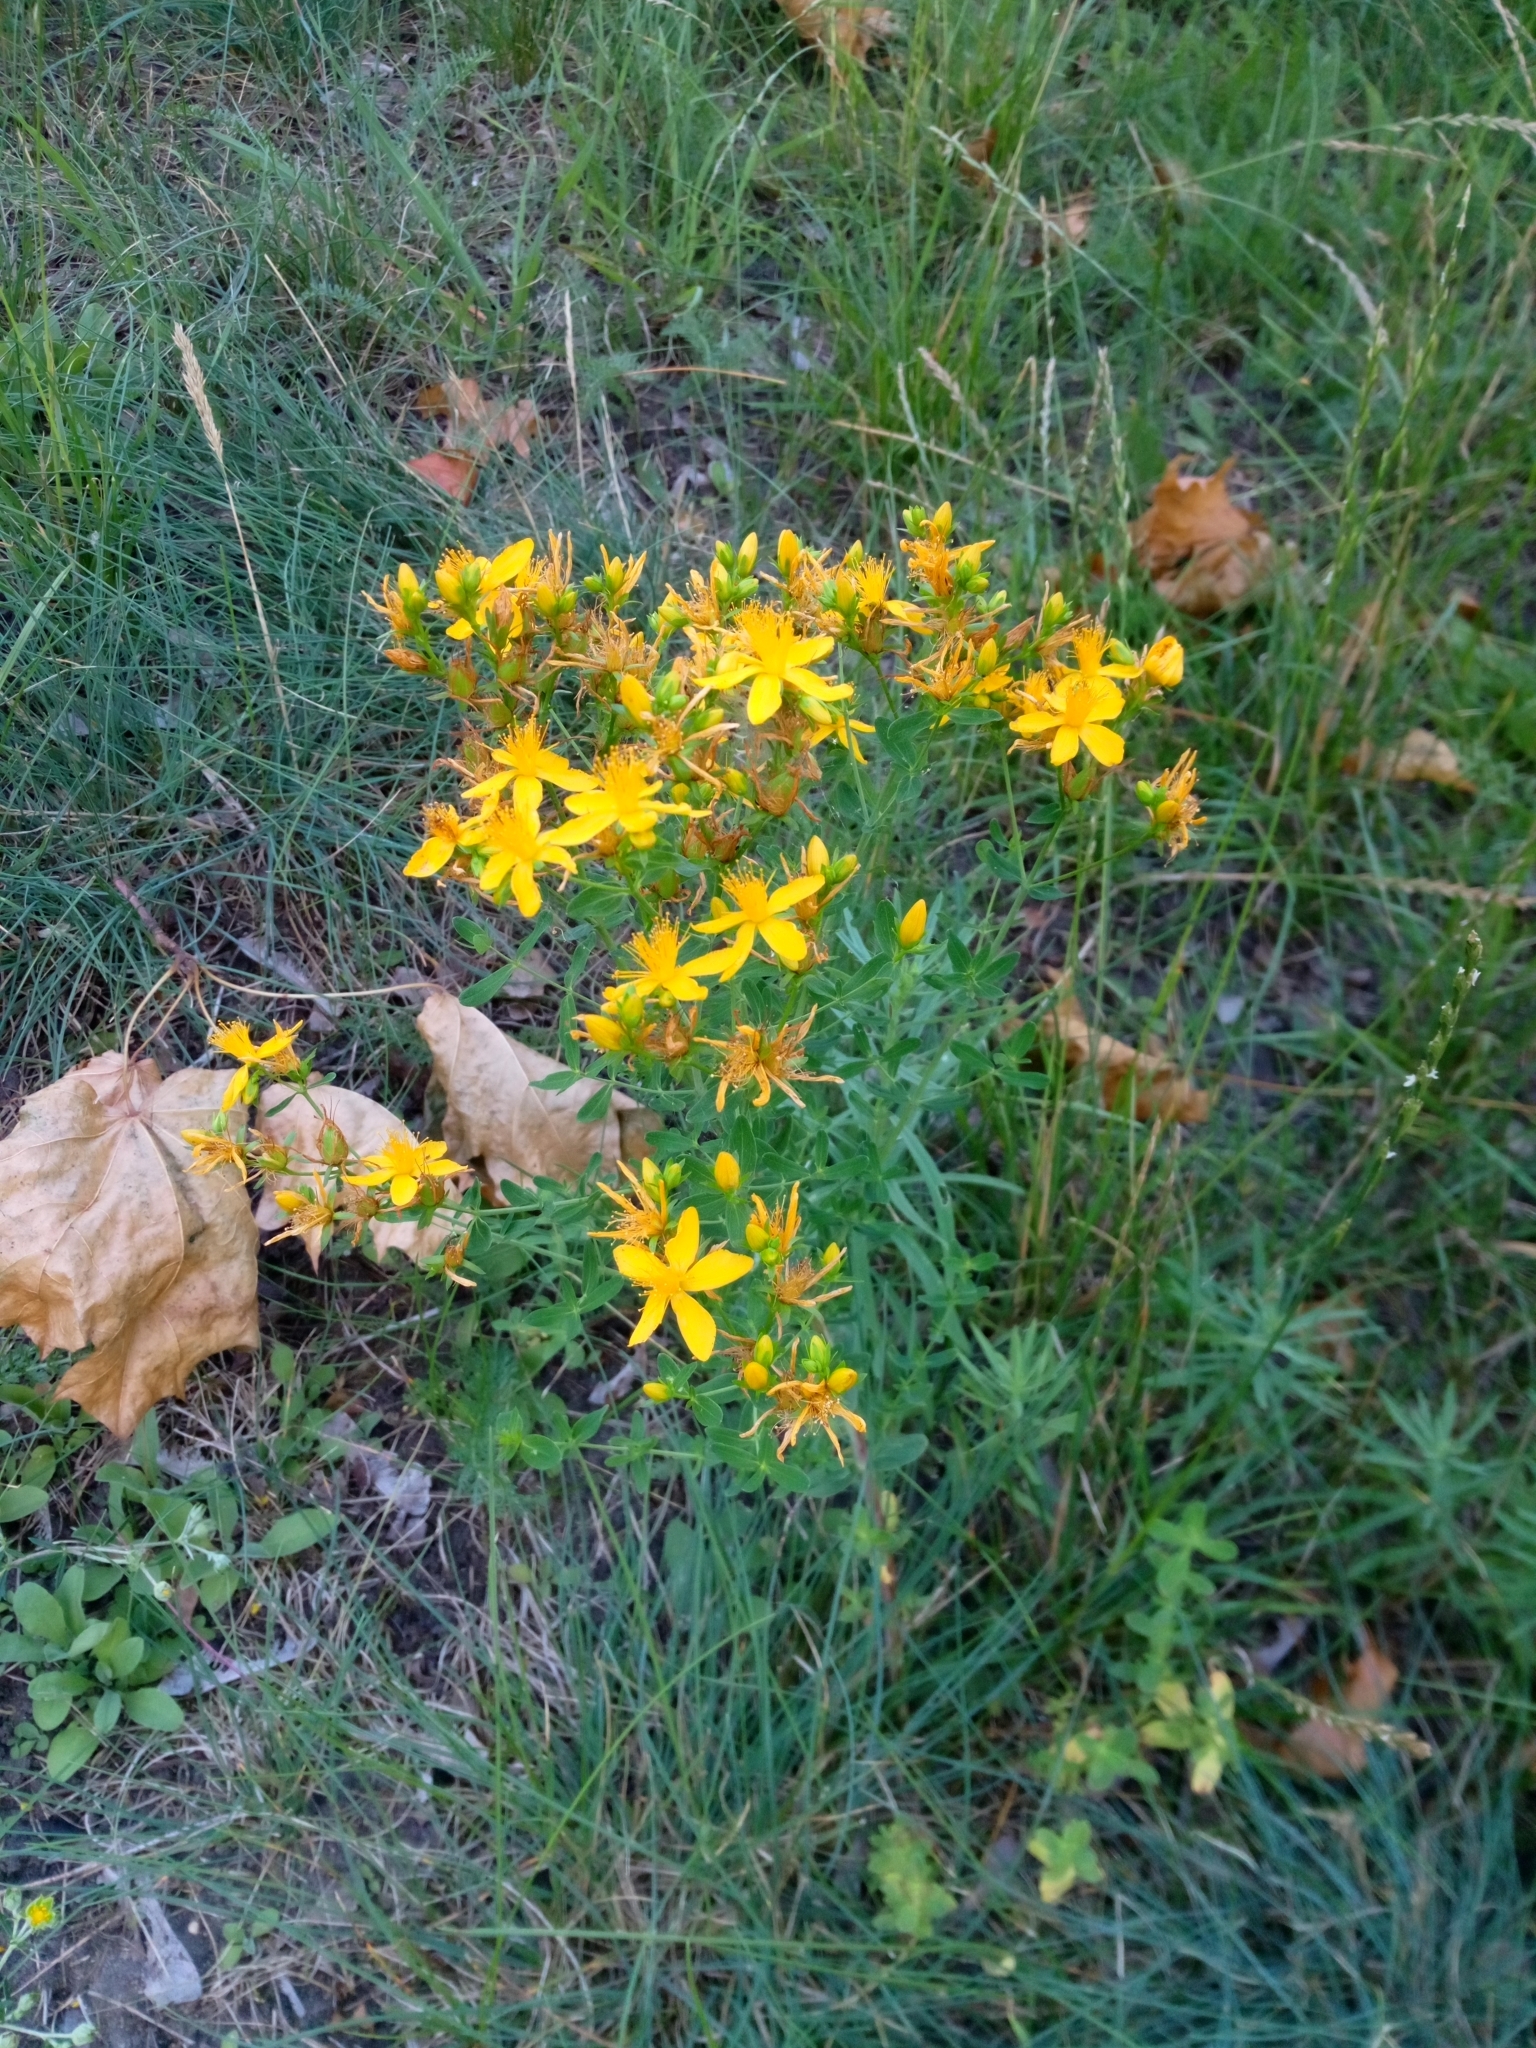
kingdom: Plantae
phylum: Tracheophyta
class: Magnoliopsida
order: Malpighiales
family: Hypericaceae
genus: Hypericum
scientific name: Hypericum perforatum
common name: Common st. johnswort
